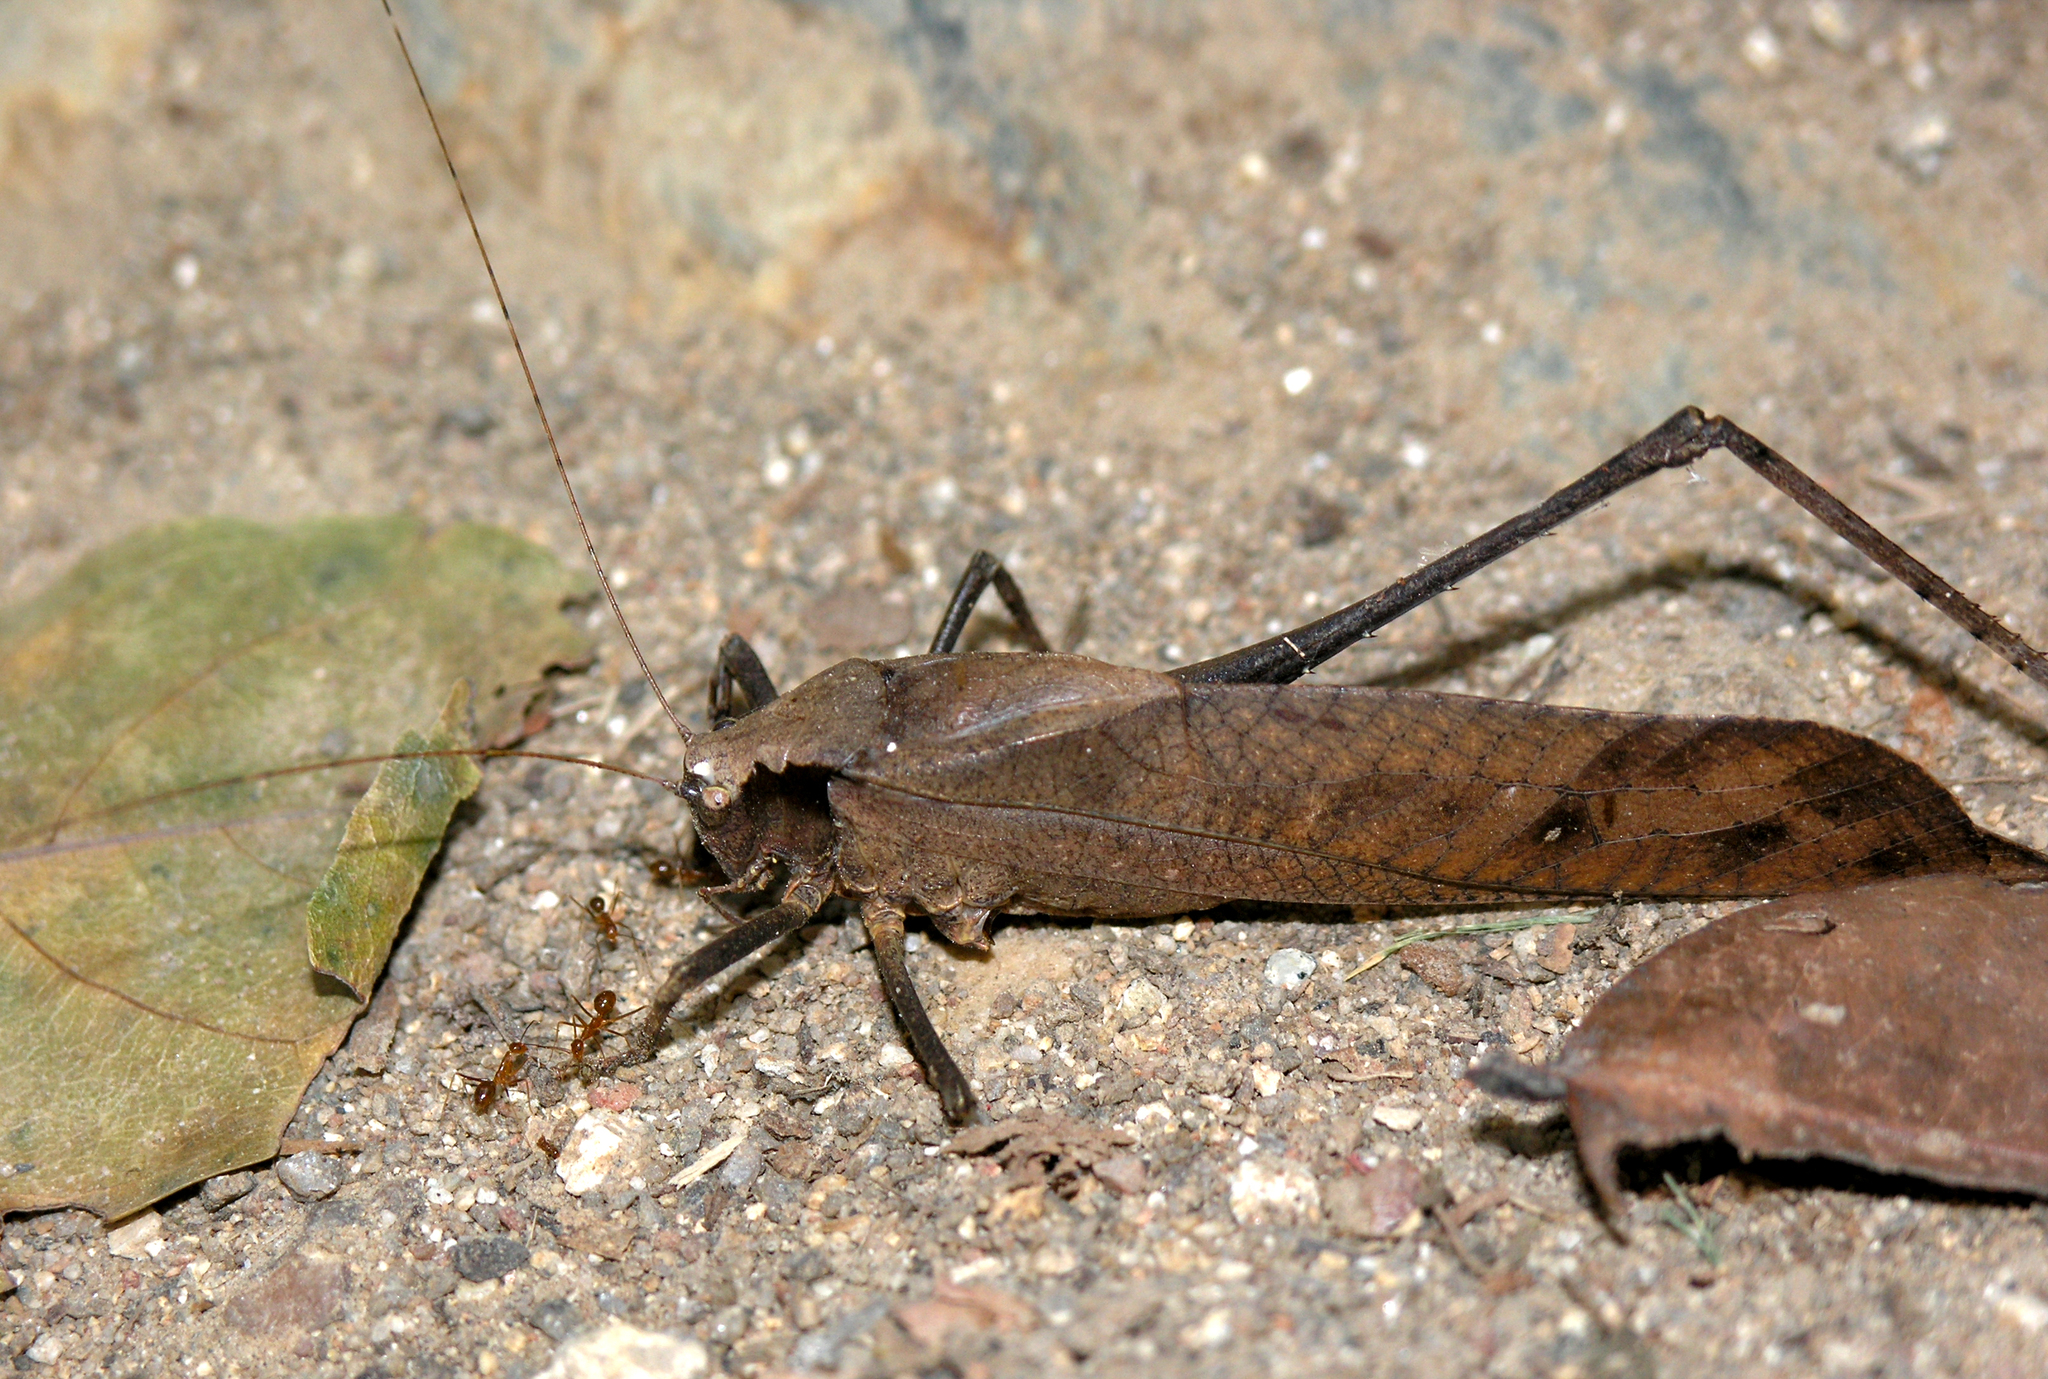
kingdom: Animalia
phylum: Arthropoda
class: Insecta
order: Orthoptera
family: Tettigoniidae
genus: Mecopoda
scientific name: Mecopoda elongata
